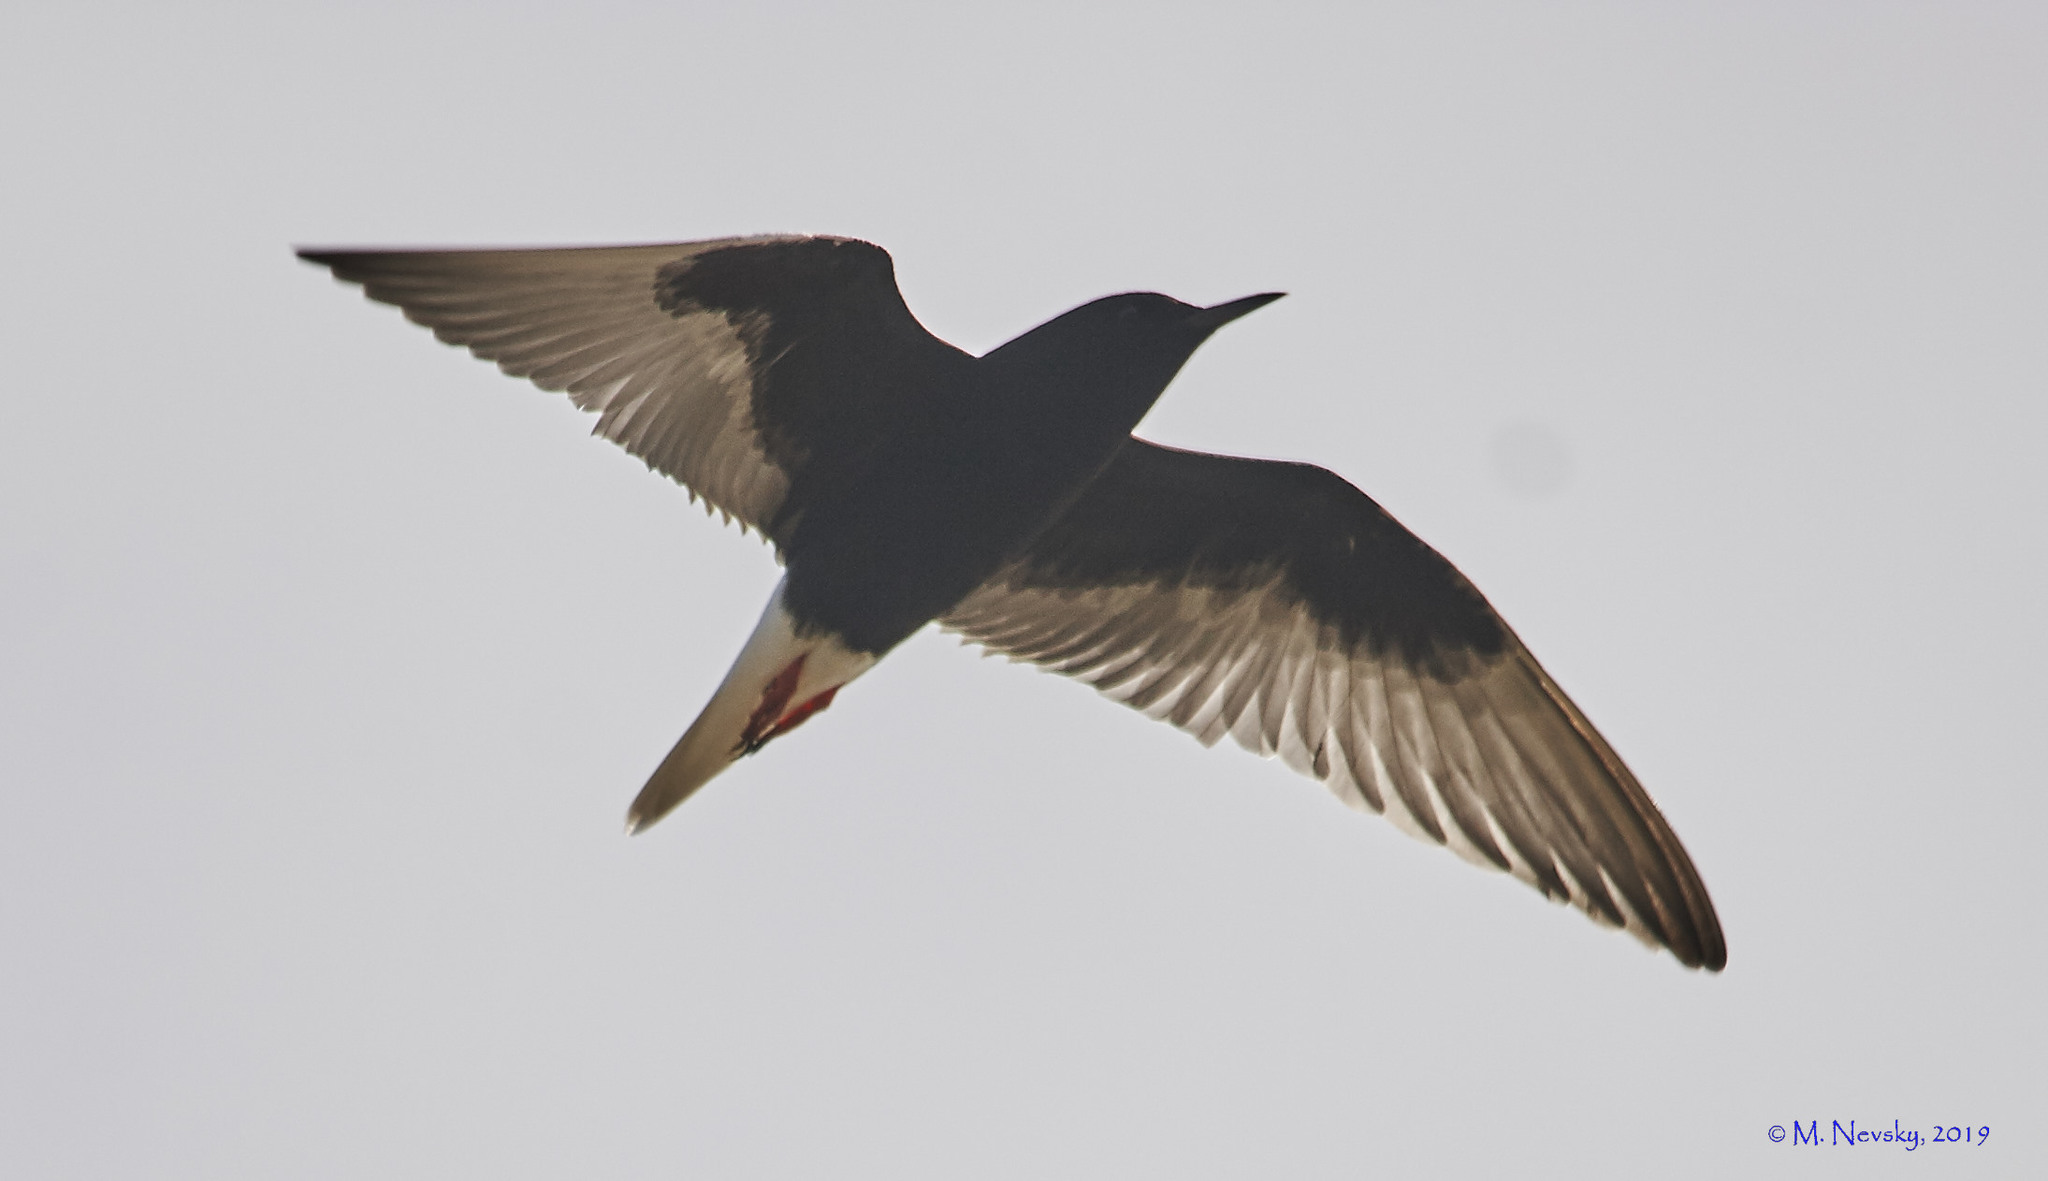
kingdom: Animalia
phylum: Chordata
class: Aves
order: Charadriiformes
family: Laridae
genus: Chlidonias
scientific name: Chlidonias leucopterus
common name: White-winged tern
